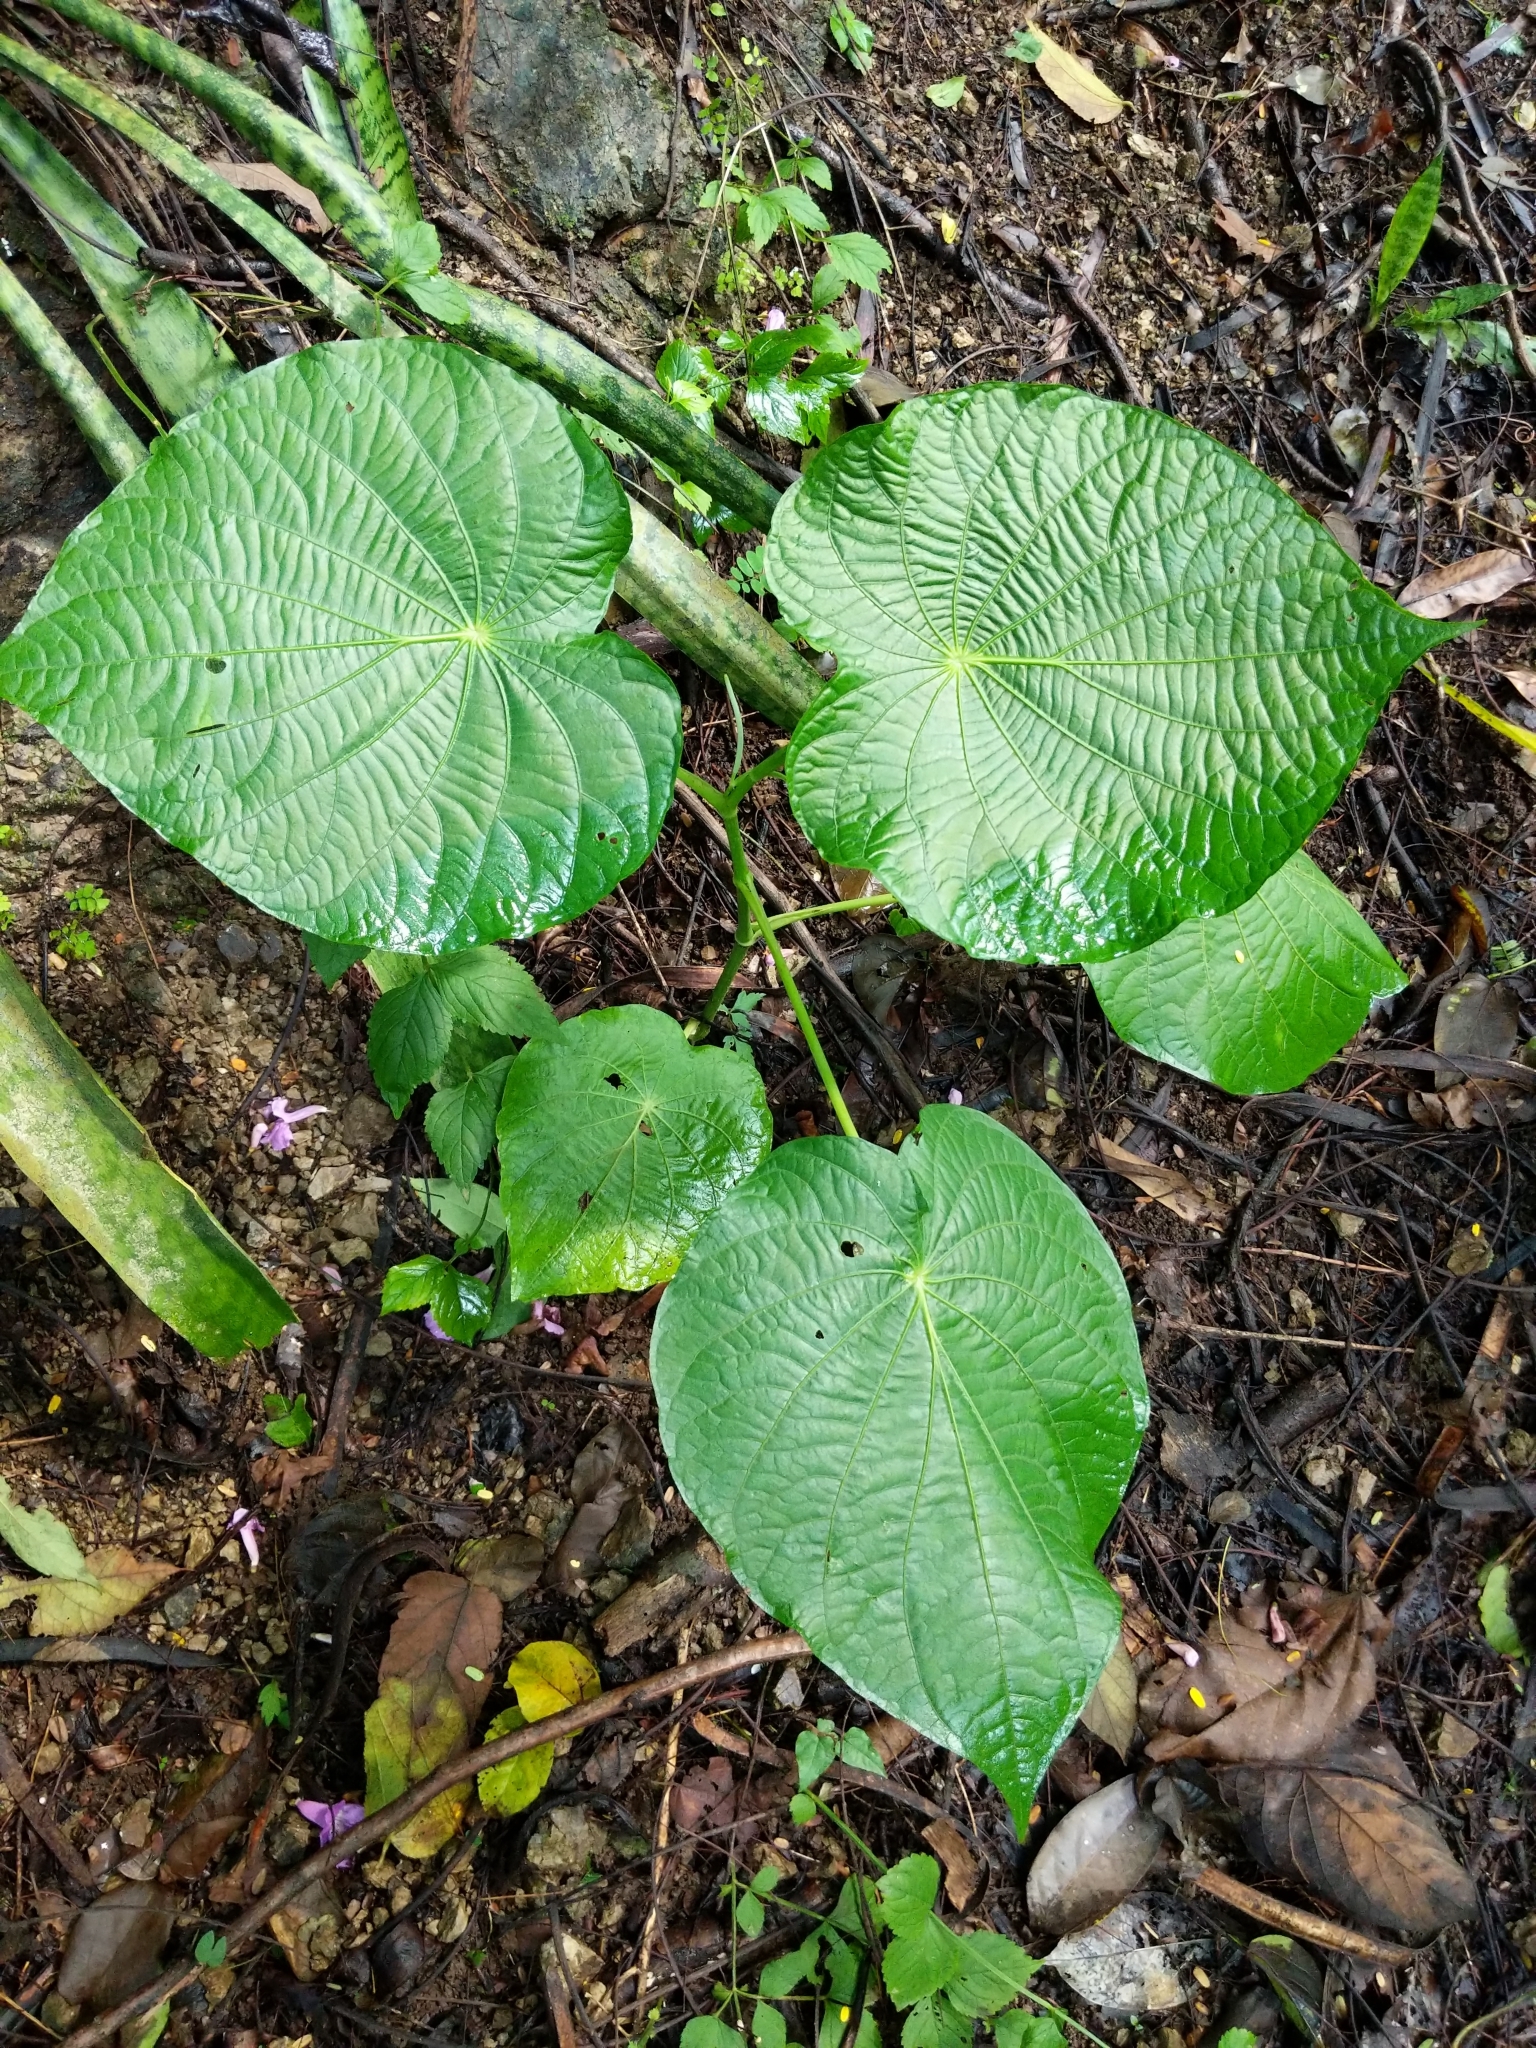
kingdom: Plantae
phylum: Tracheophyta
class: Magnoliopsida
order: Piperales
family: Piperaceae
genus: Piper
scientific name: Piper peltatum
